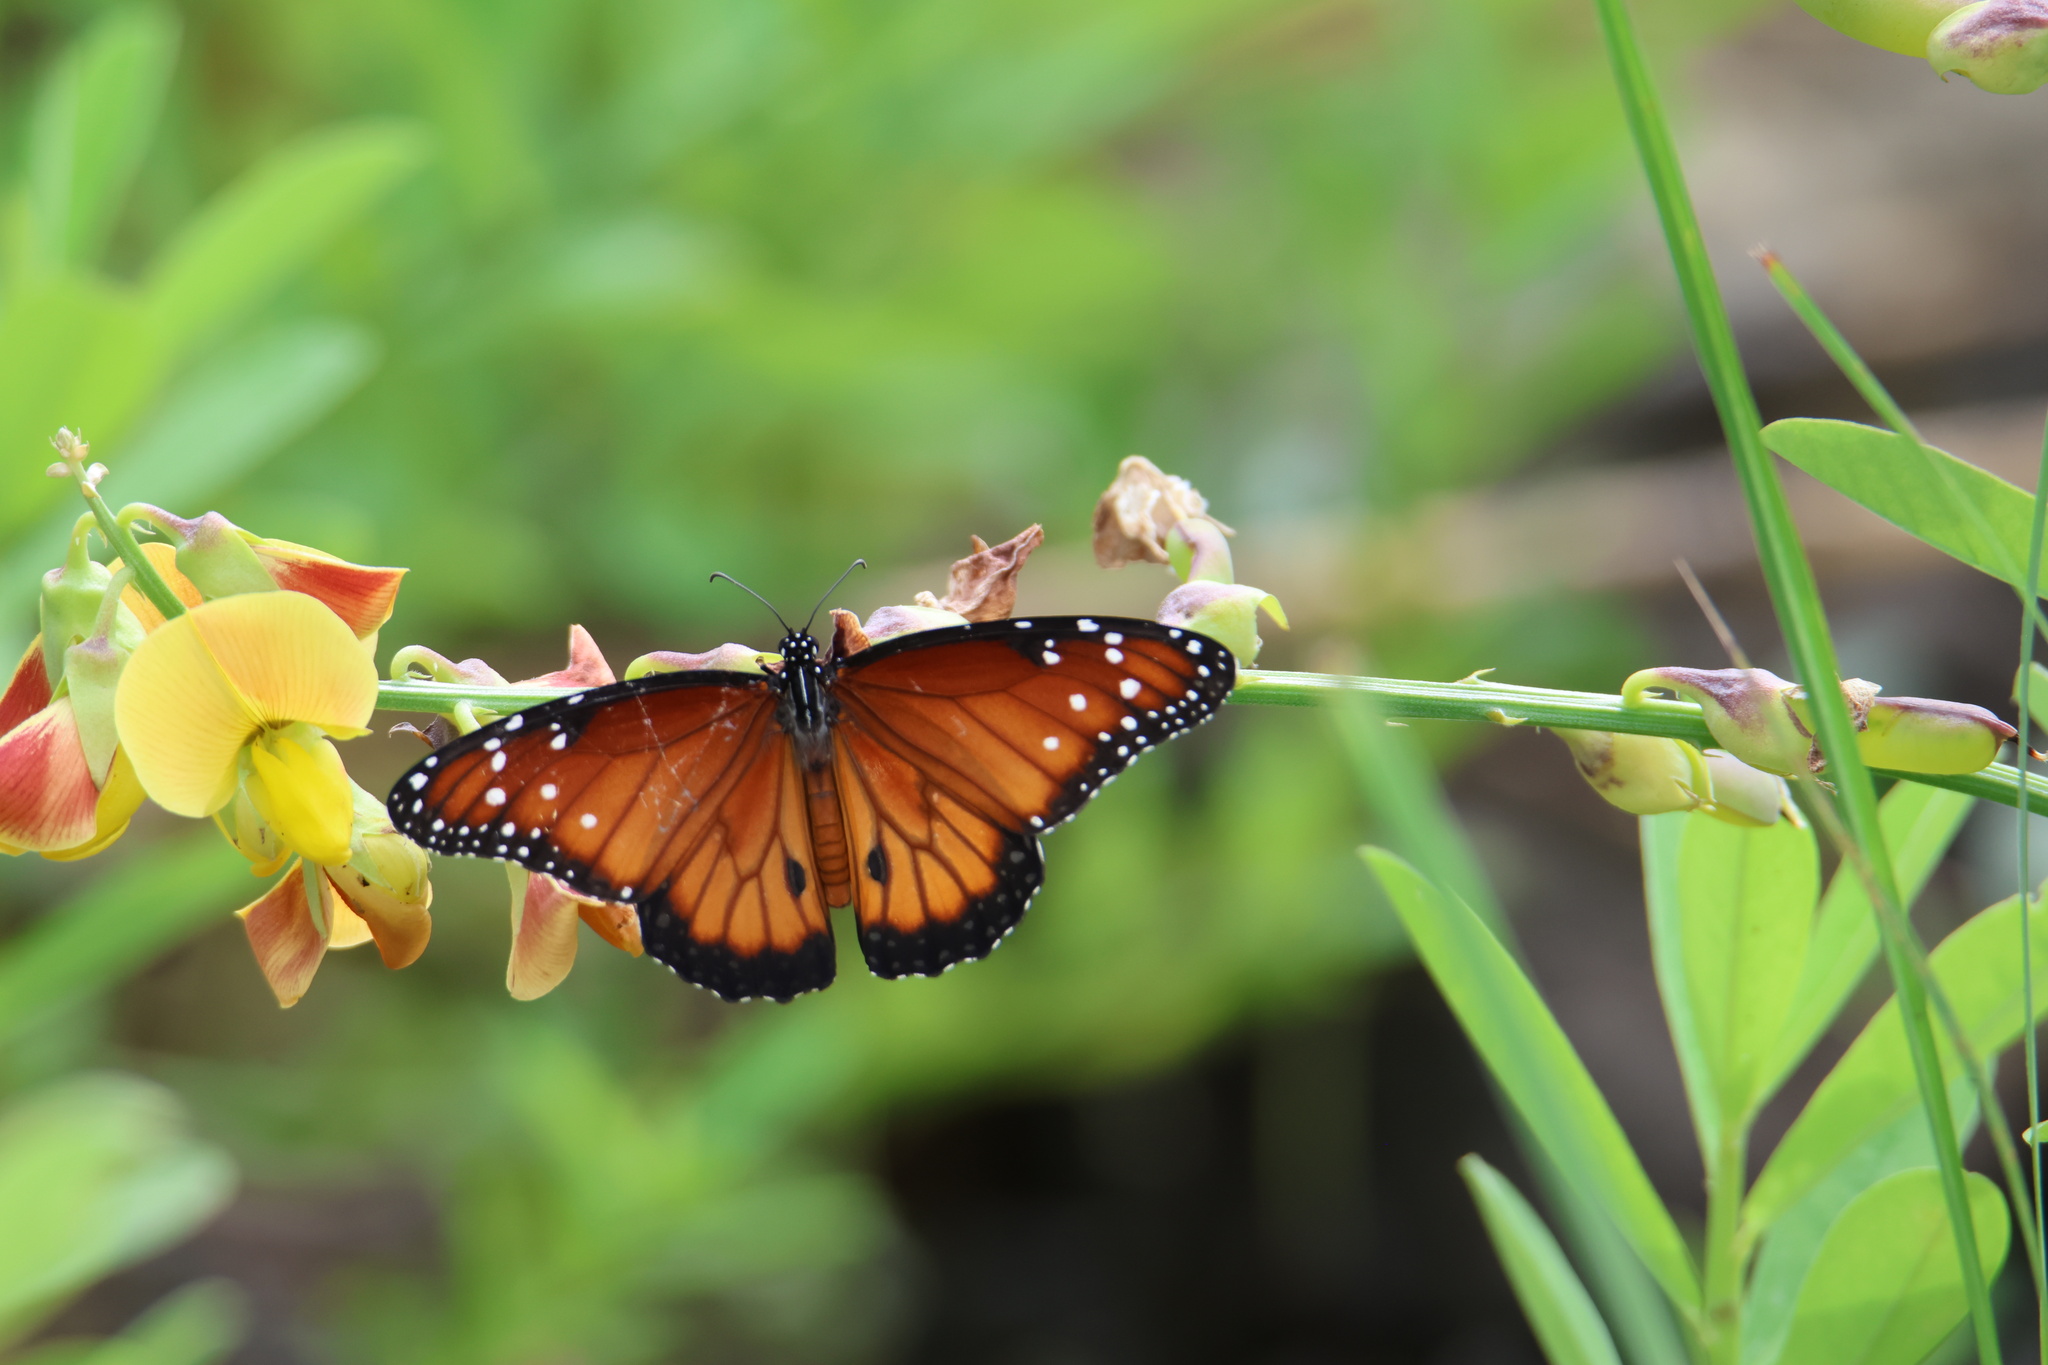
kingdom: Animalia
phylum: Arthropoda
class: Insecta
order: Lepidoptera
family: Nymphalidae
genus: Danaus
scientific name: Danaus gilippus
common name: Queen
